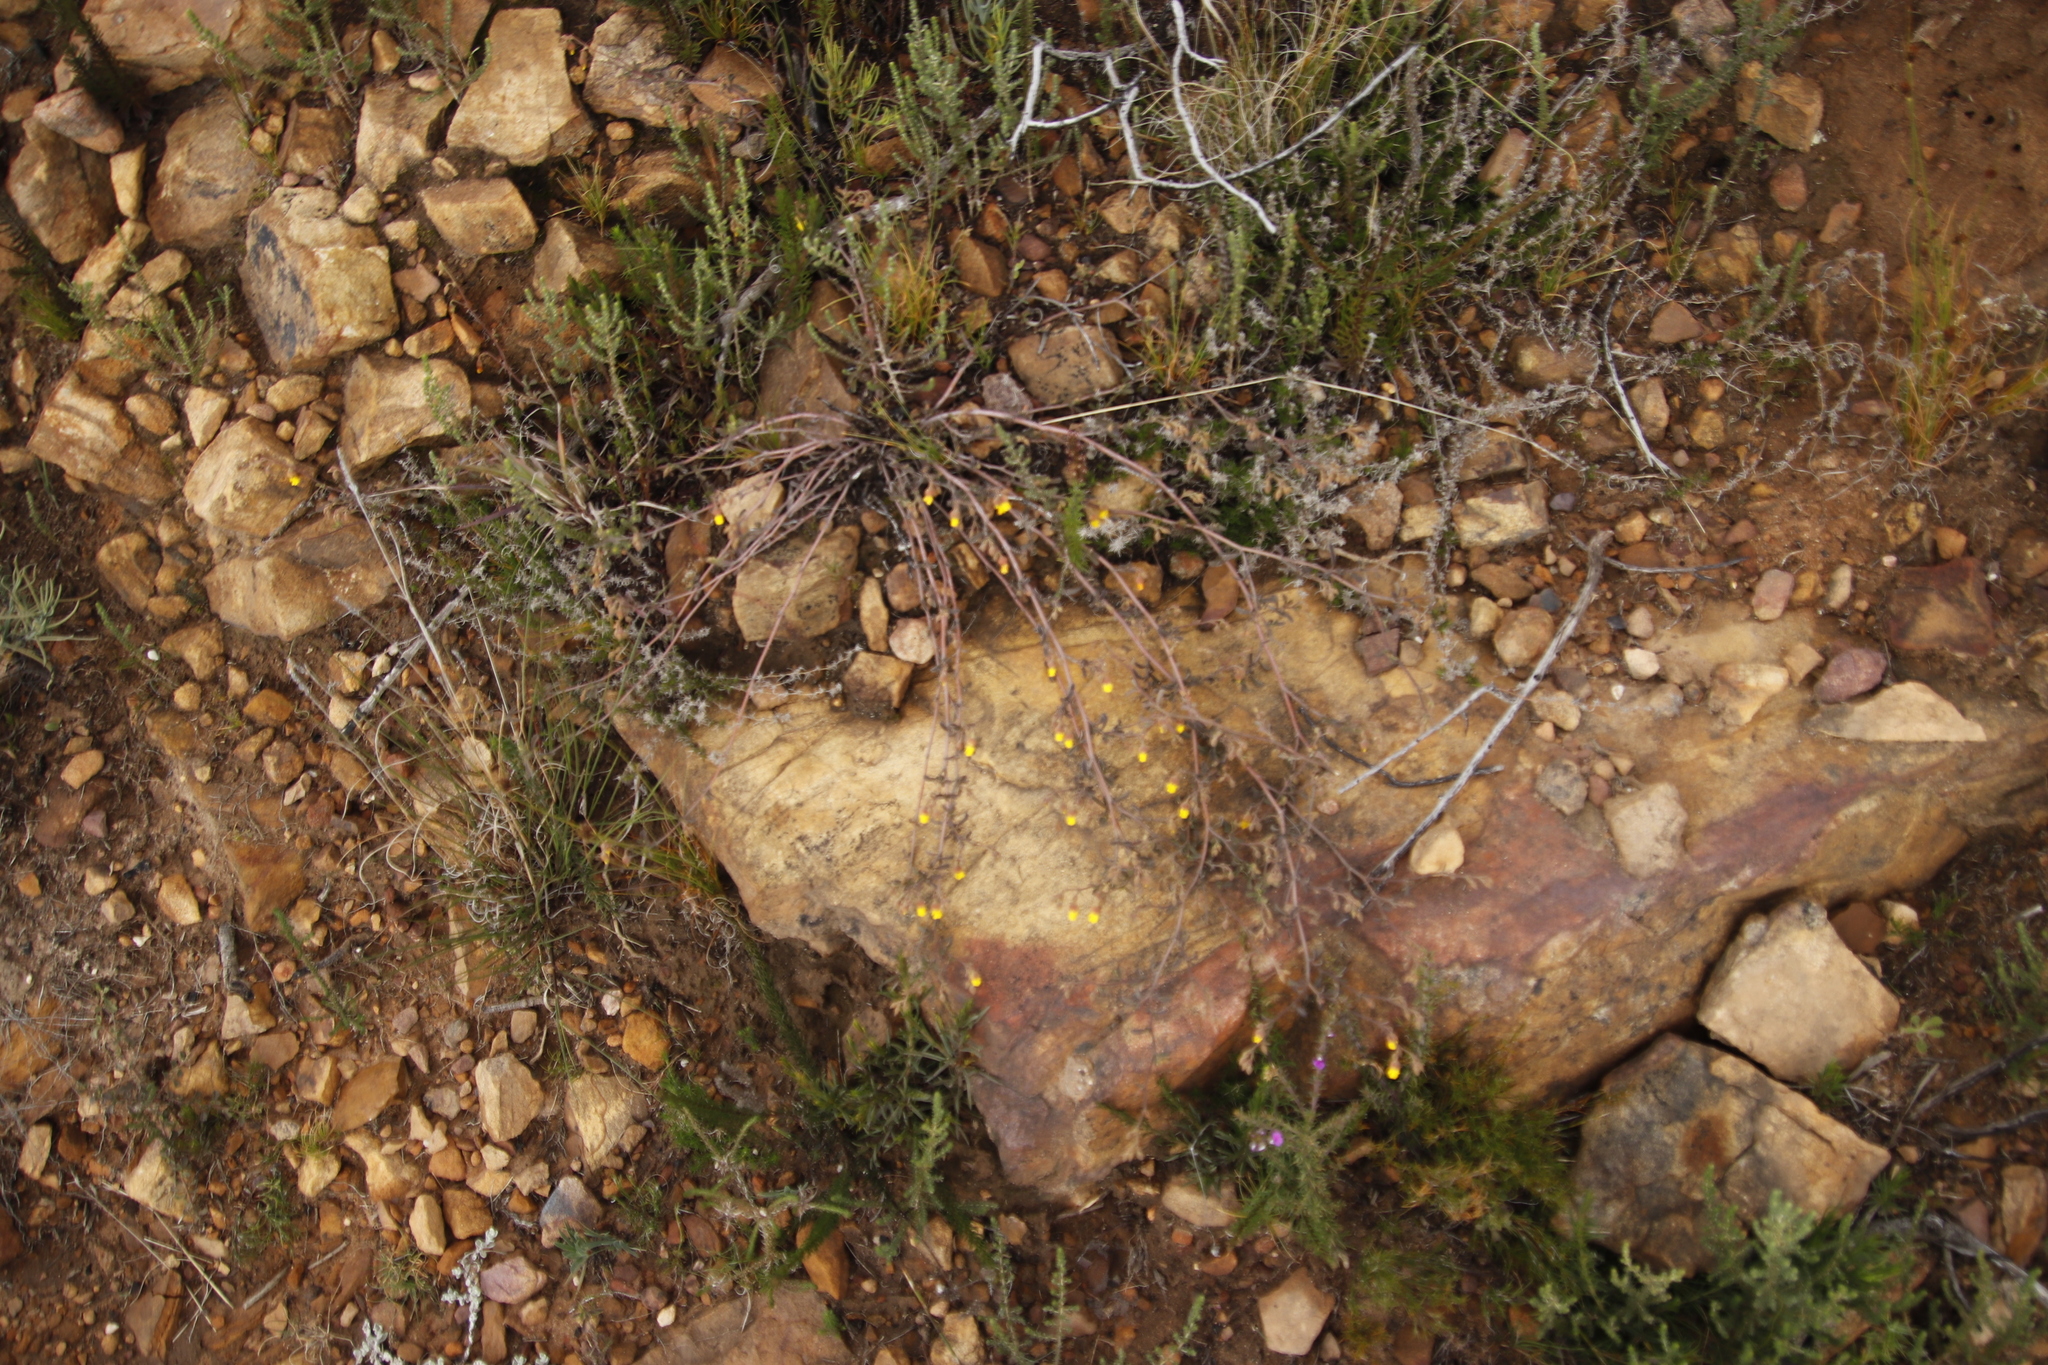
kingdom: Plantae
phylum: Tracheophyta
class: Magnoliopsida
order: Malvales
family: Malvaceae
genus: Hermannia
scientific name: Hermannia multiflora
